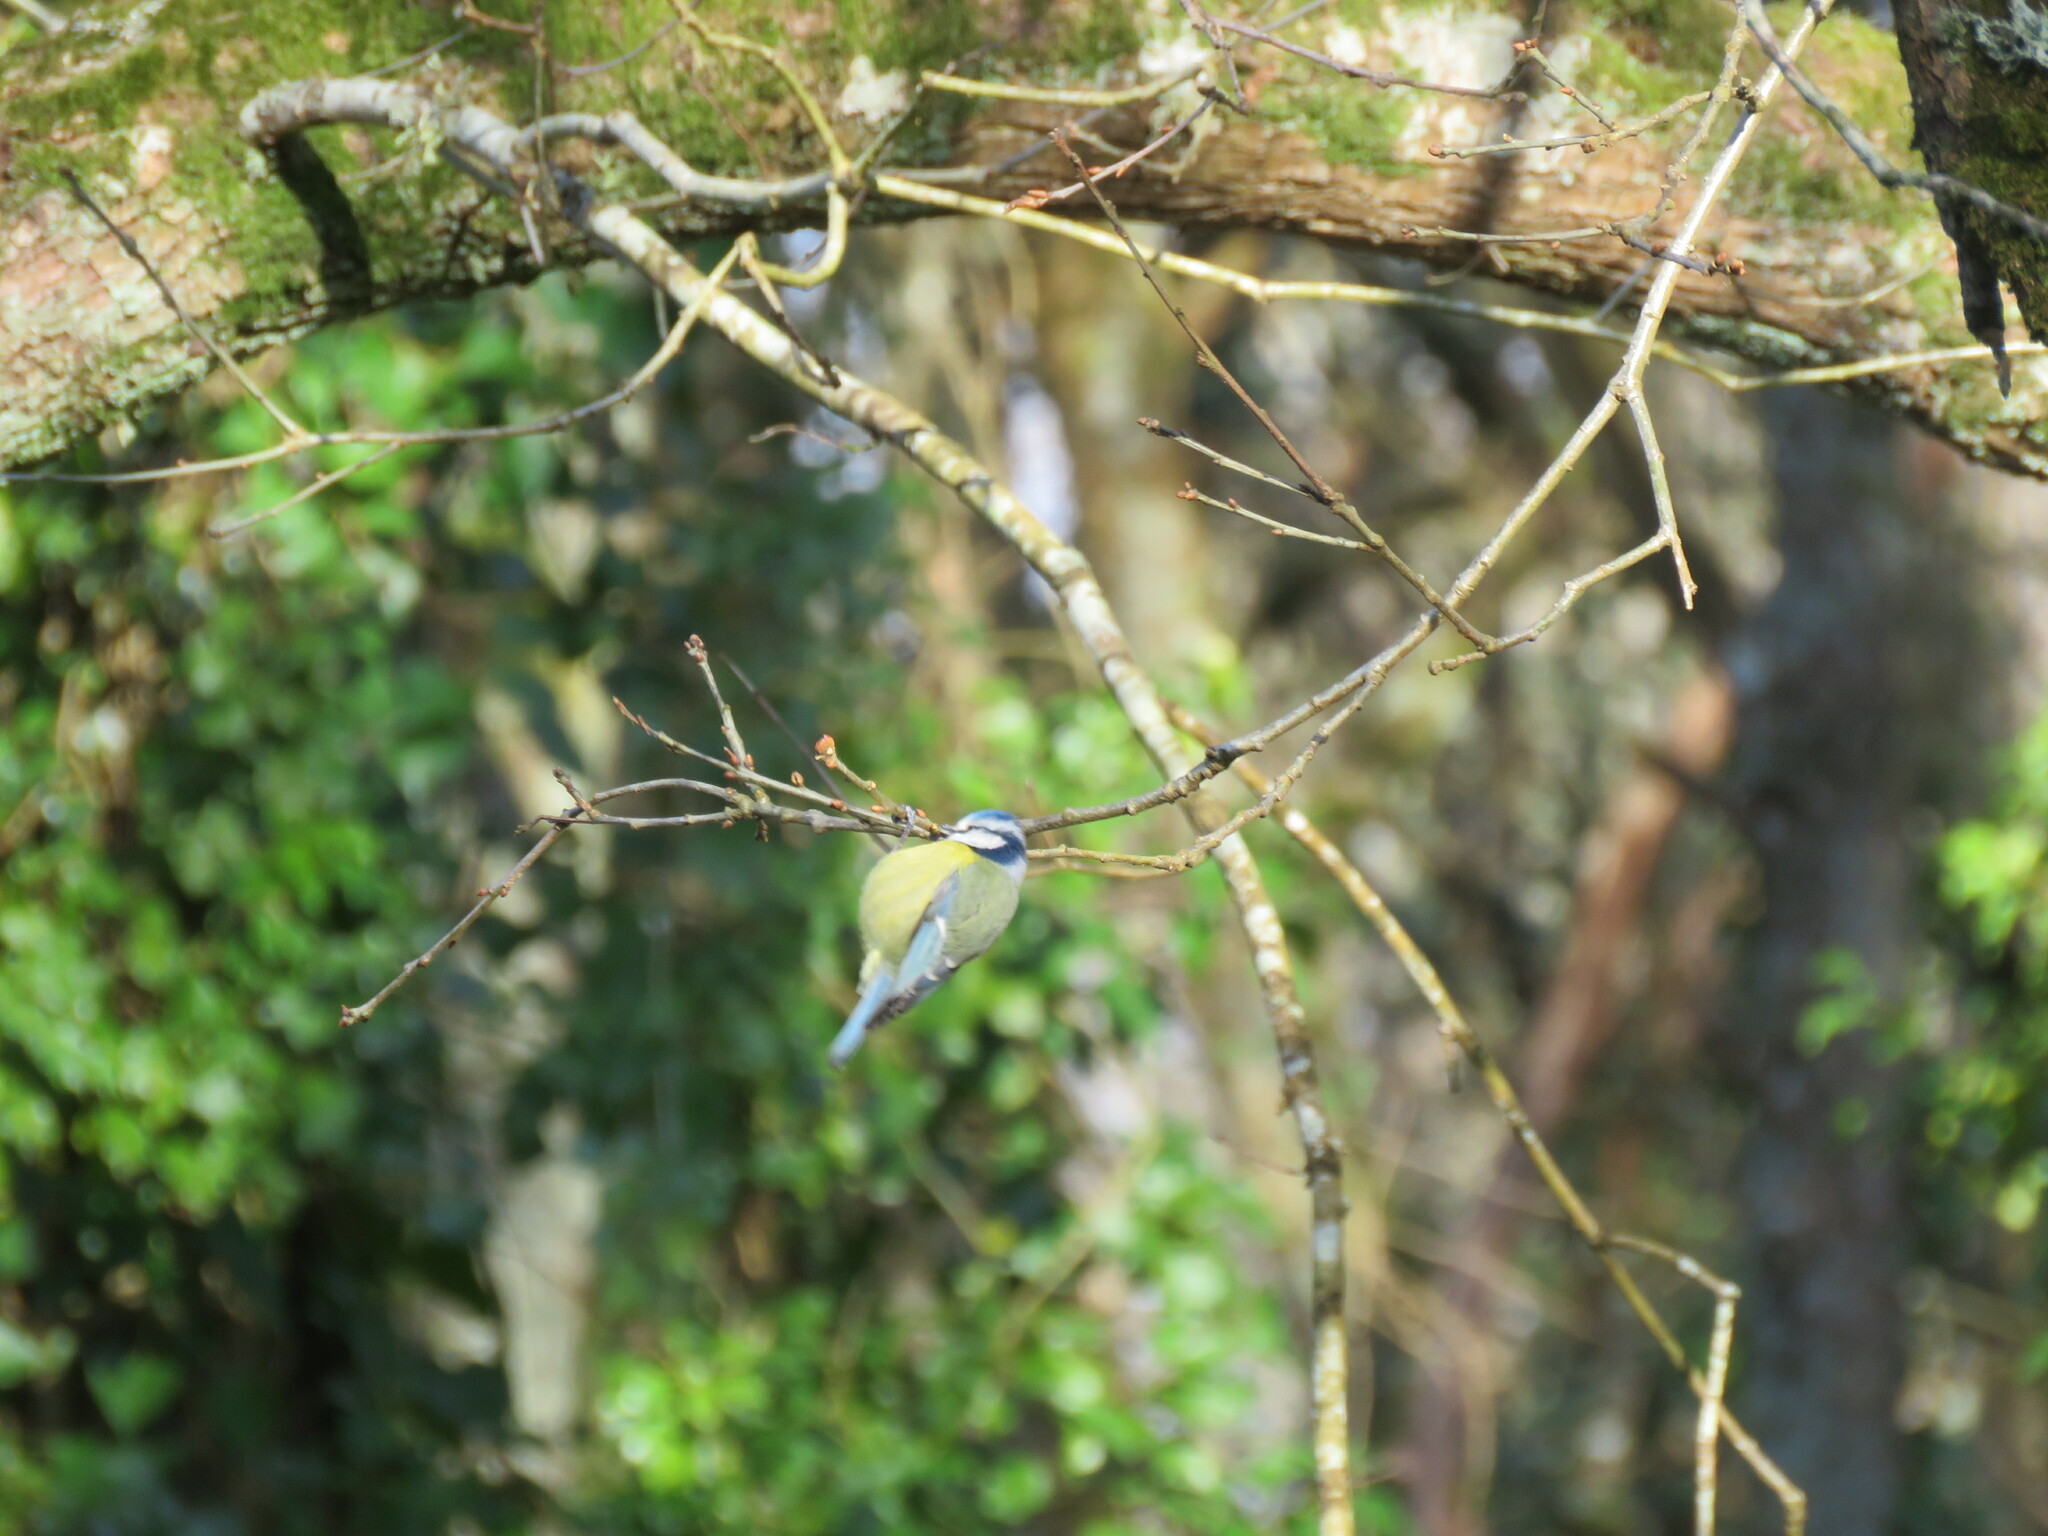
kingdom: Animalia
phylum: Chordata
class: Aves
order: Passeriformes
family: Paridae
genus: Cyanistes
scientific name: Cyanistes caeruleus
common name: Eurasian blue tit
